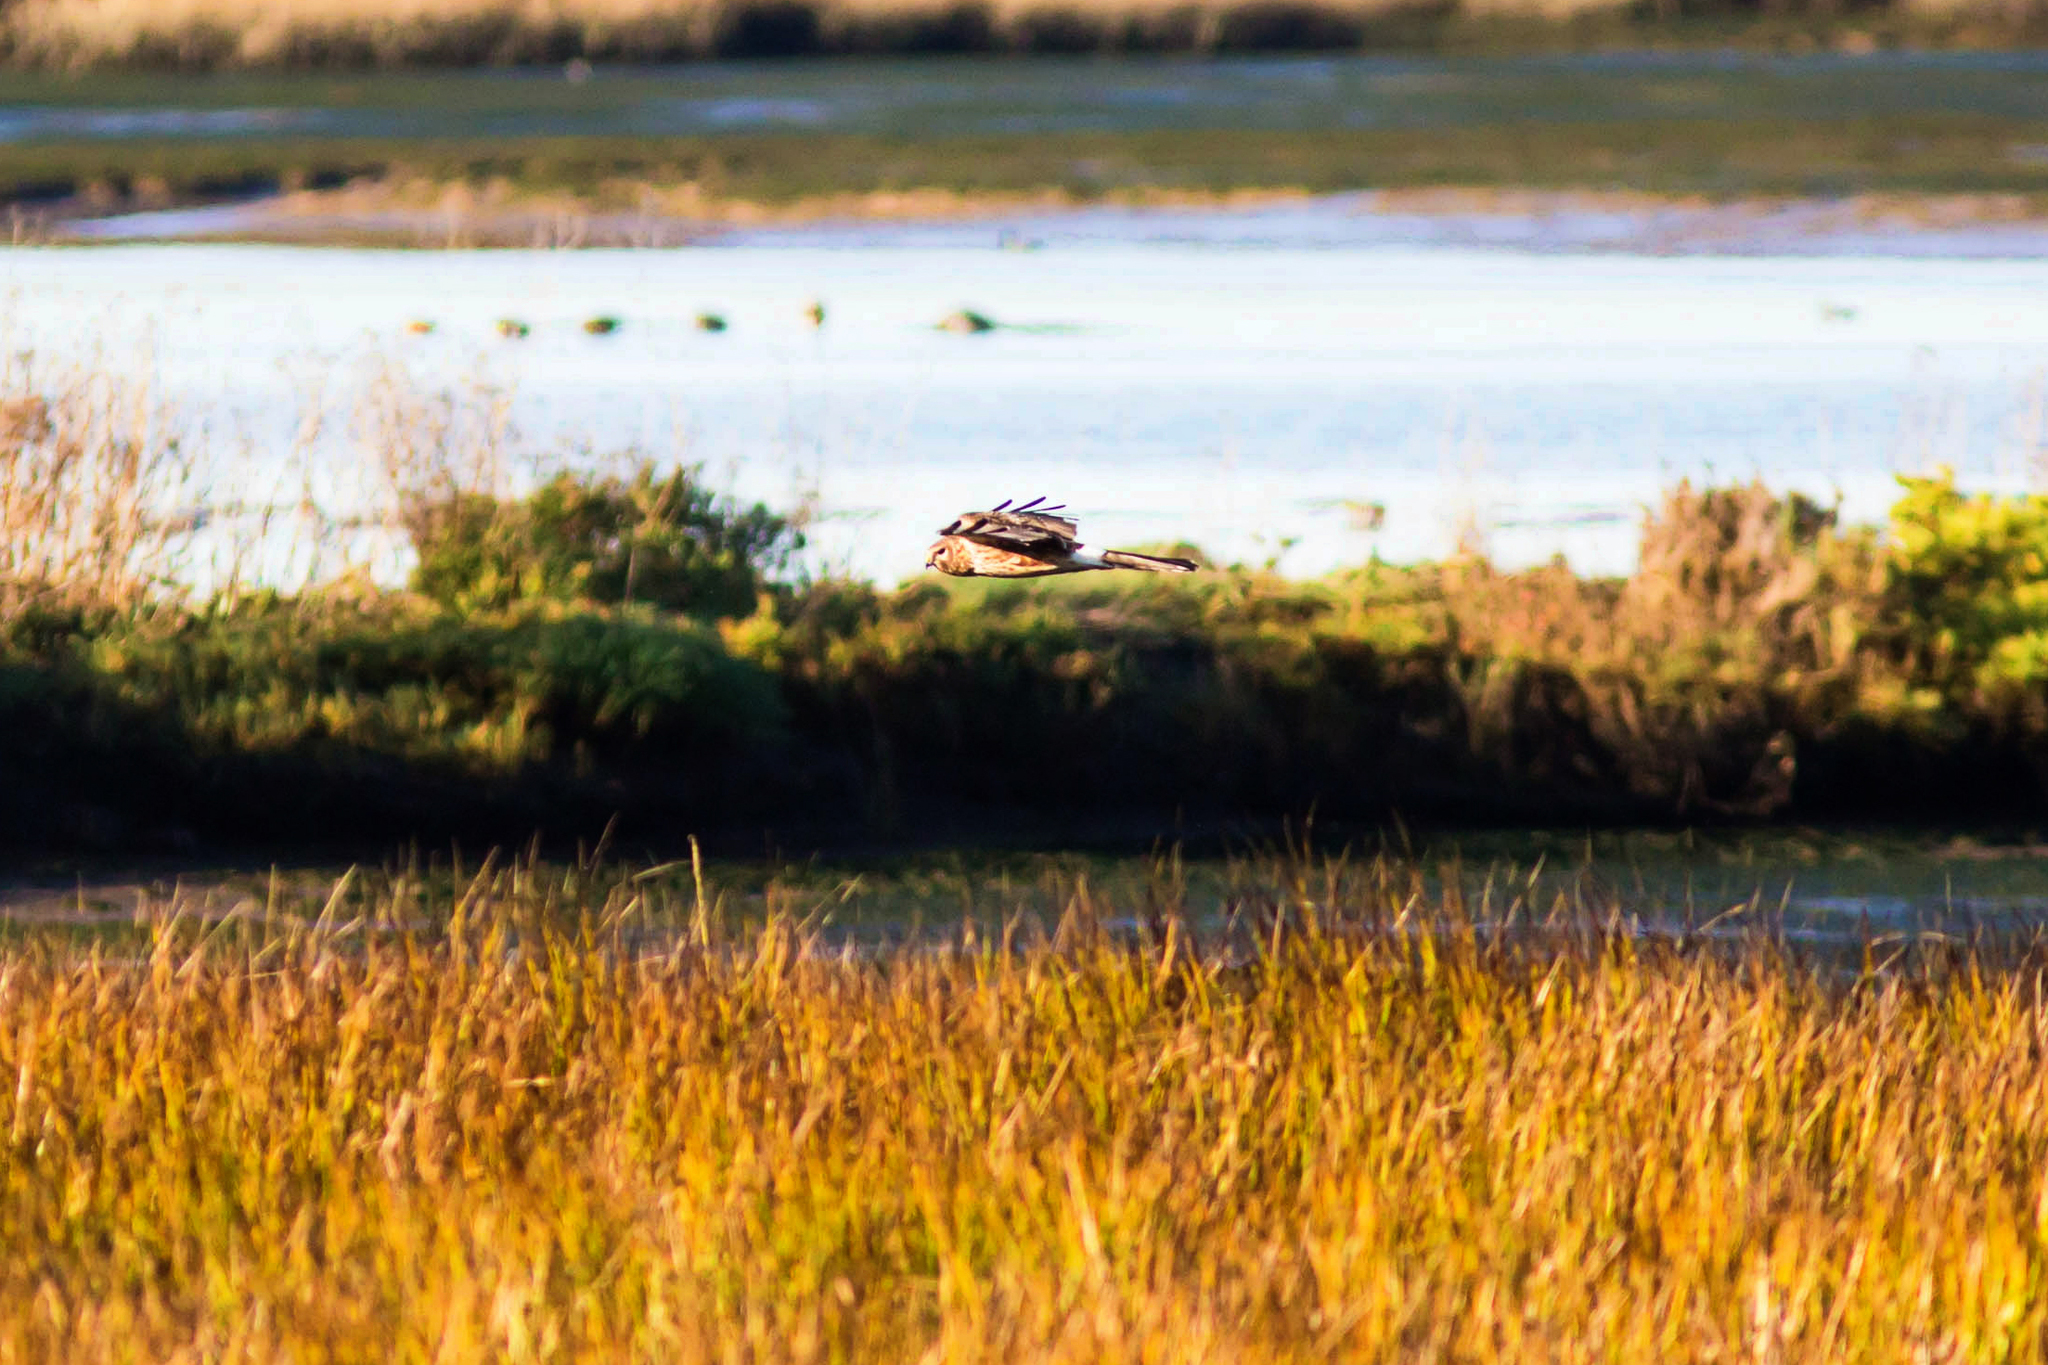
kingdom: Animalia
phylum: Chordata
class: Aves
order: Accipitriformes
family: Accipitridae
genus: Circus
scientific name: Circus cyaneus
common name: Hen harrier
